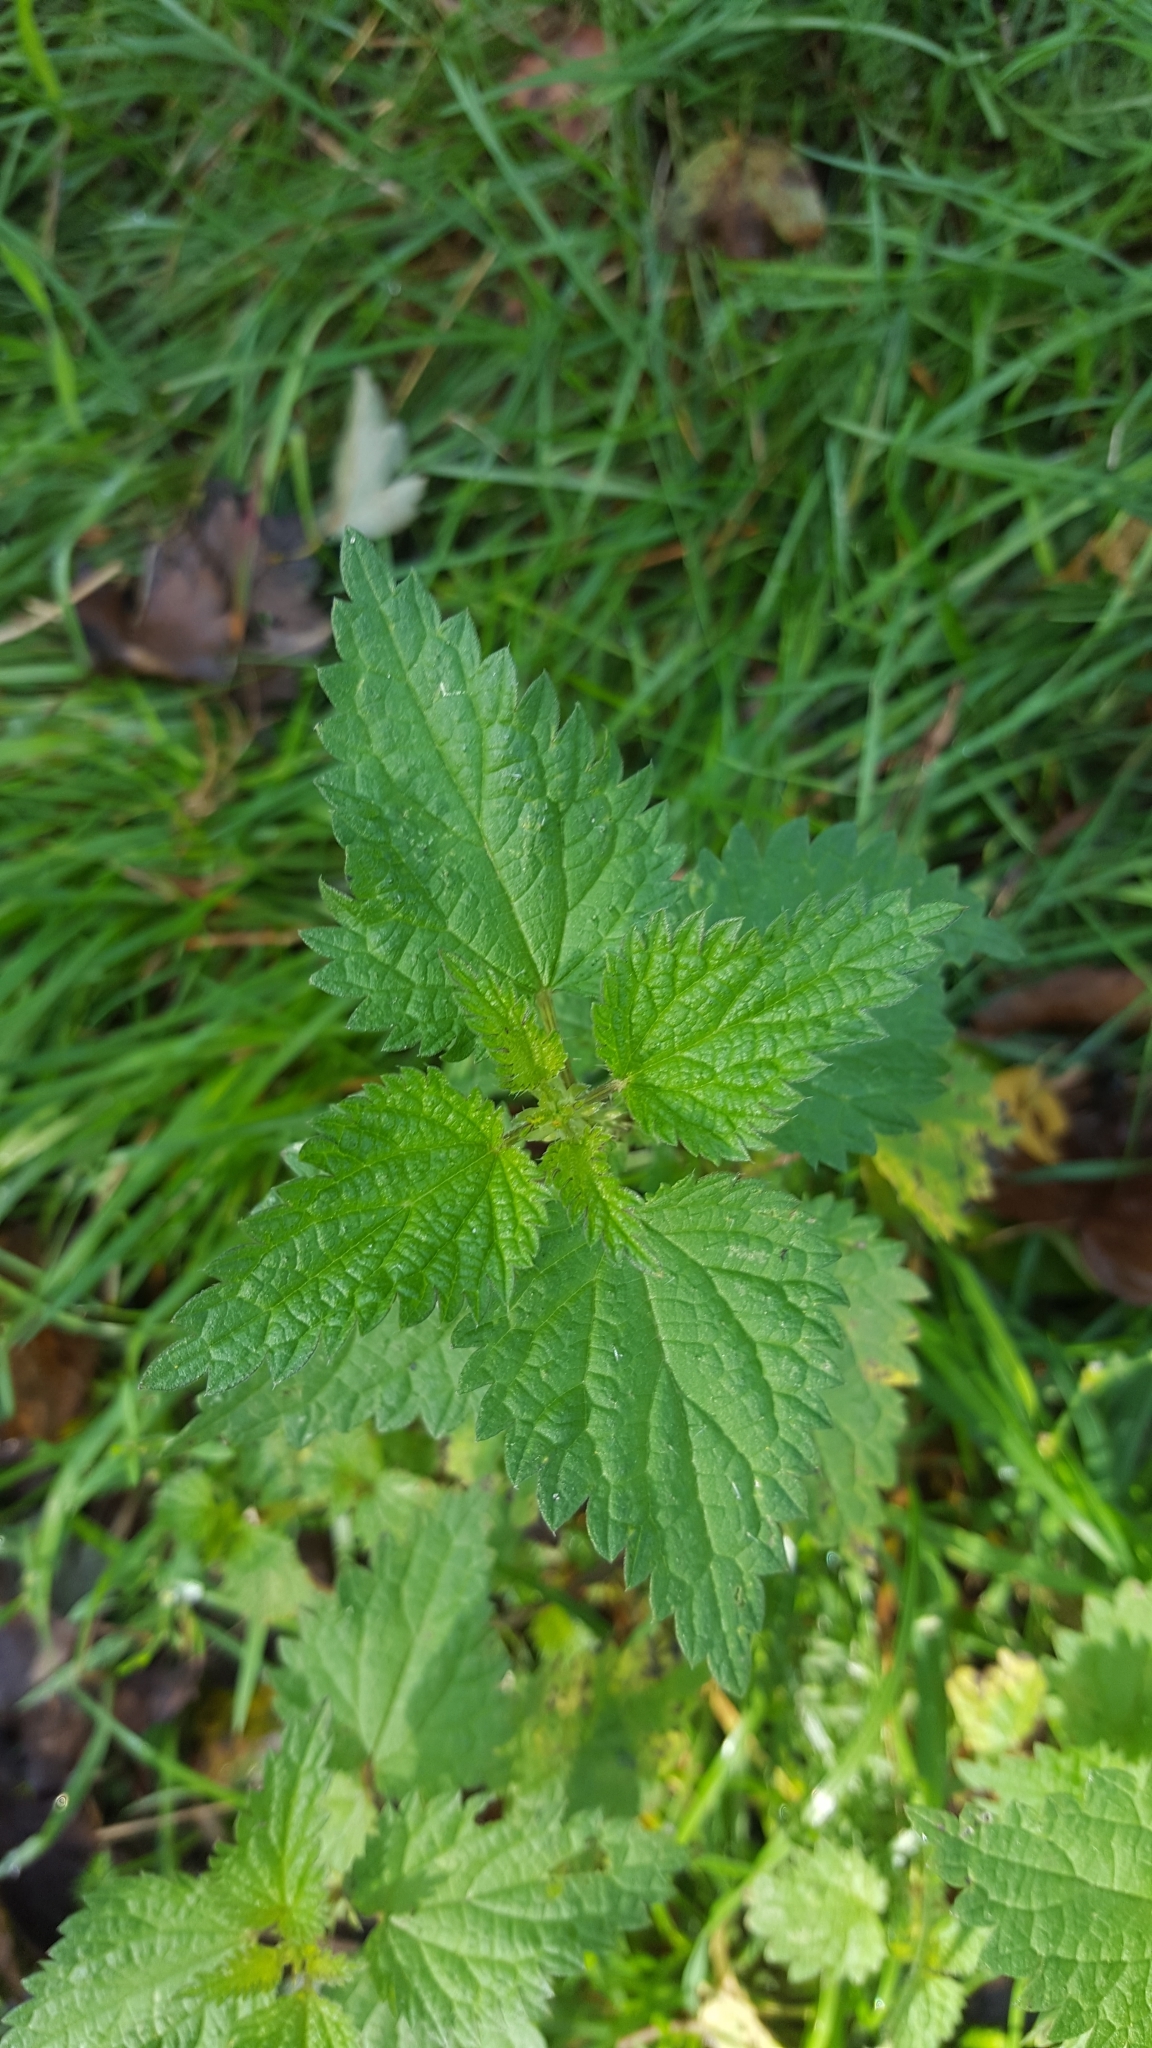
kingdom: Plantae
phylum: Tracheophyta
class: Magnoliopsida
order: Rosales
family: Urticaceae
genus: Urtica
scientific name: Urtica dioica
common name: Common nettle
